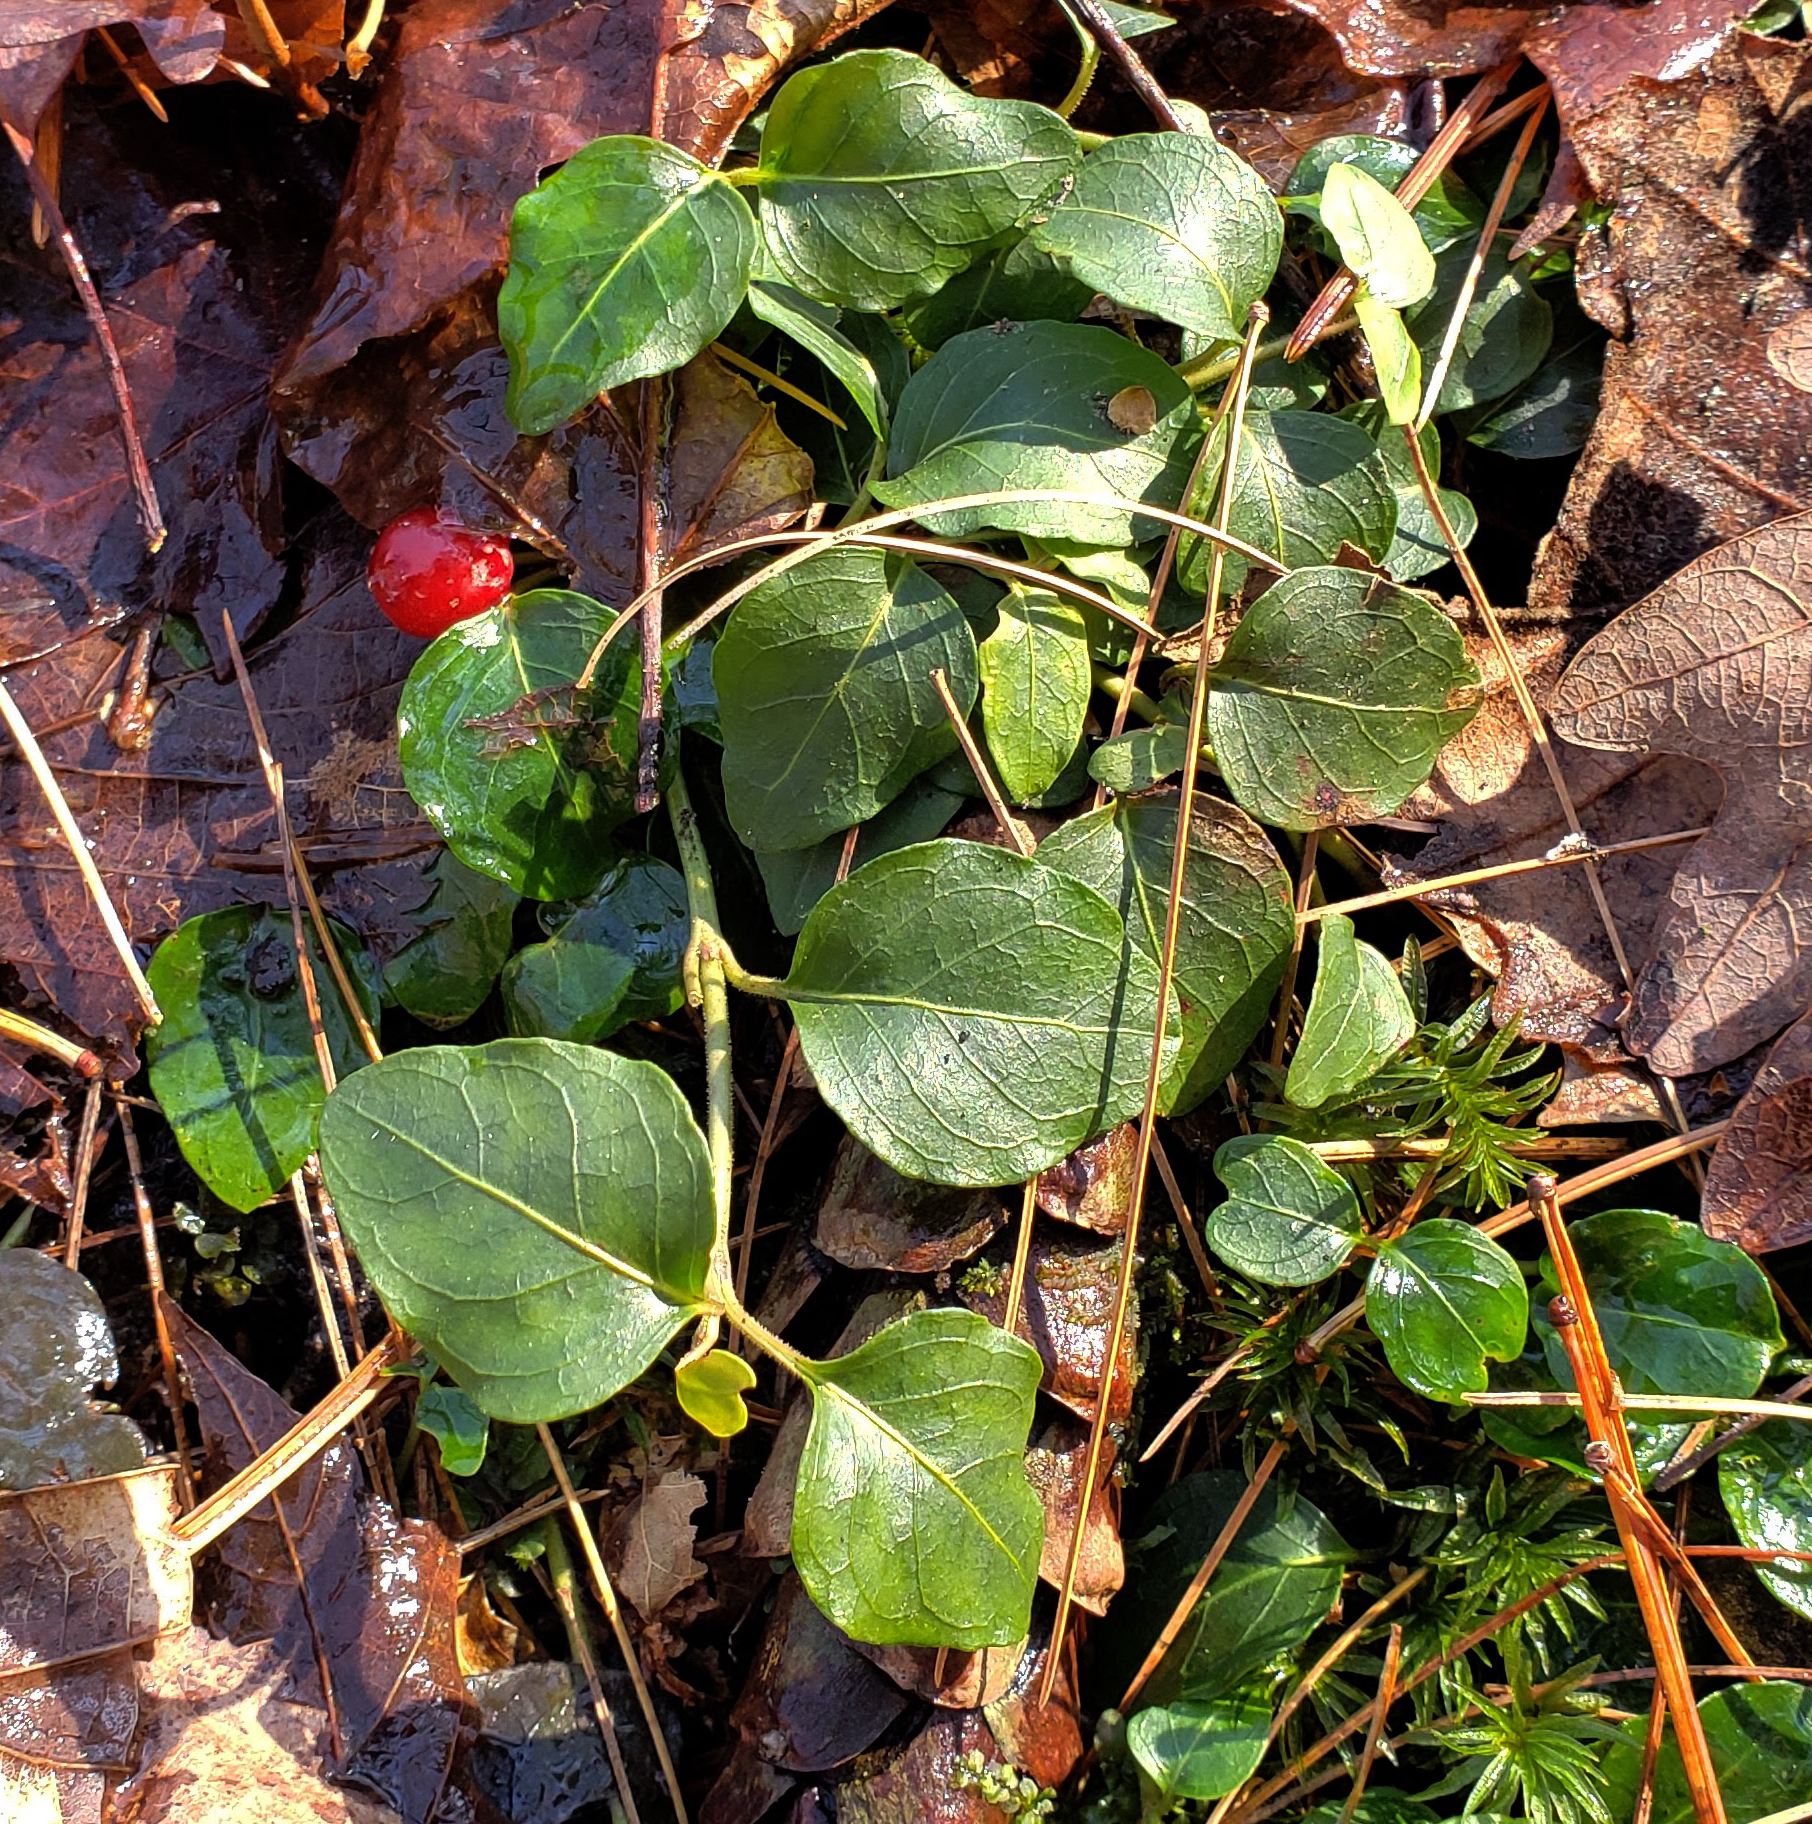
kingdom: Plantae
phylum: Tracheophyta
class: Magnoliopsida
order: Gentianales
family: Rubiaceae
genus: Mitchella
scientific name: Mitchella repens
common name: Partridge-berry
